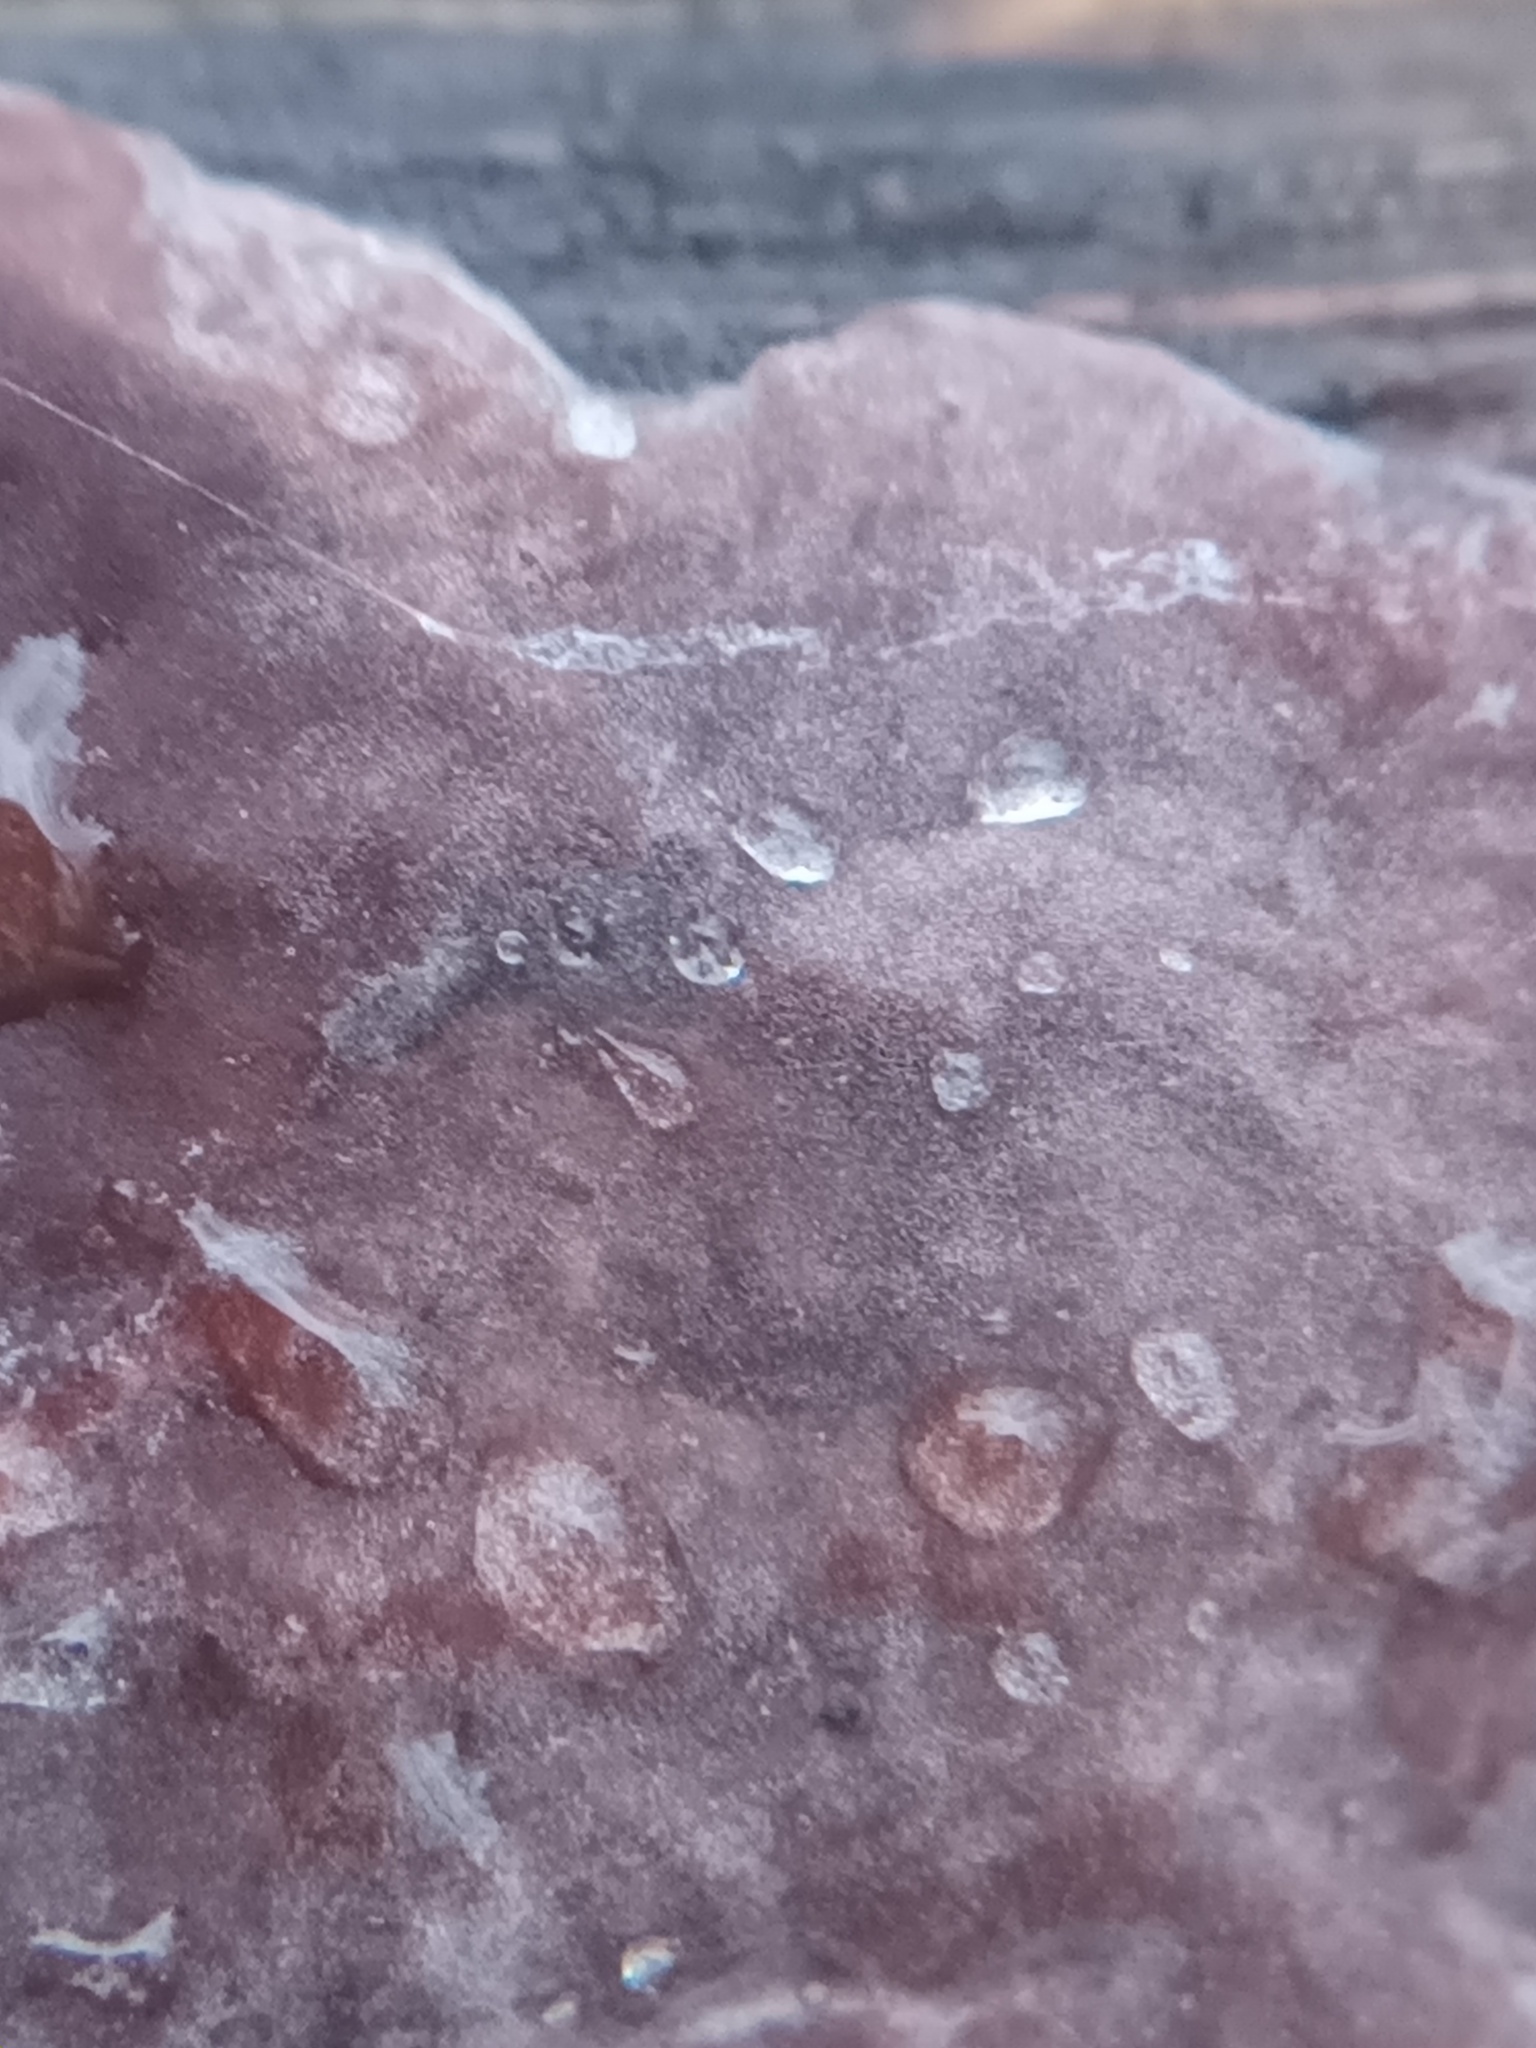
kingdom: Fungi
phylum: Basidiomycota
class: Agaricomycetes
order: Russulales
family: Peniophoraceae
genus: Peniophora
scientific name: Peniophora quercina
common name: Oak crust
